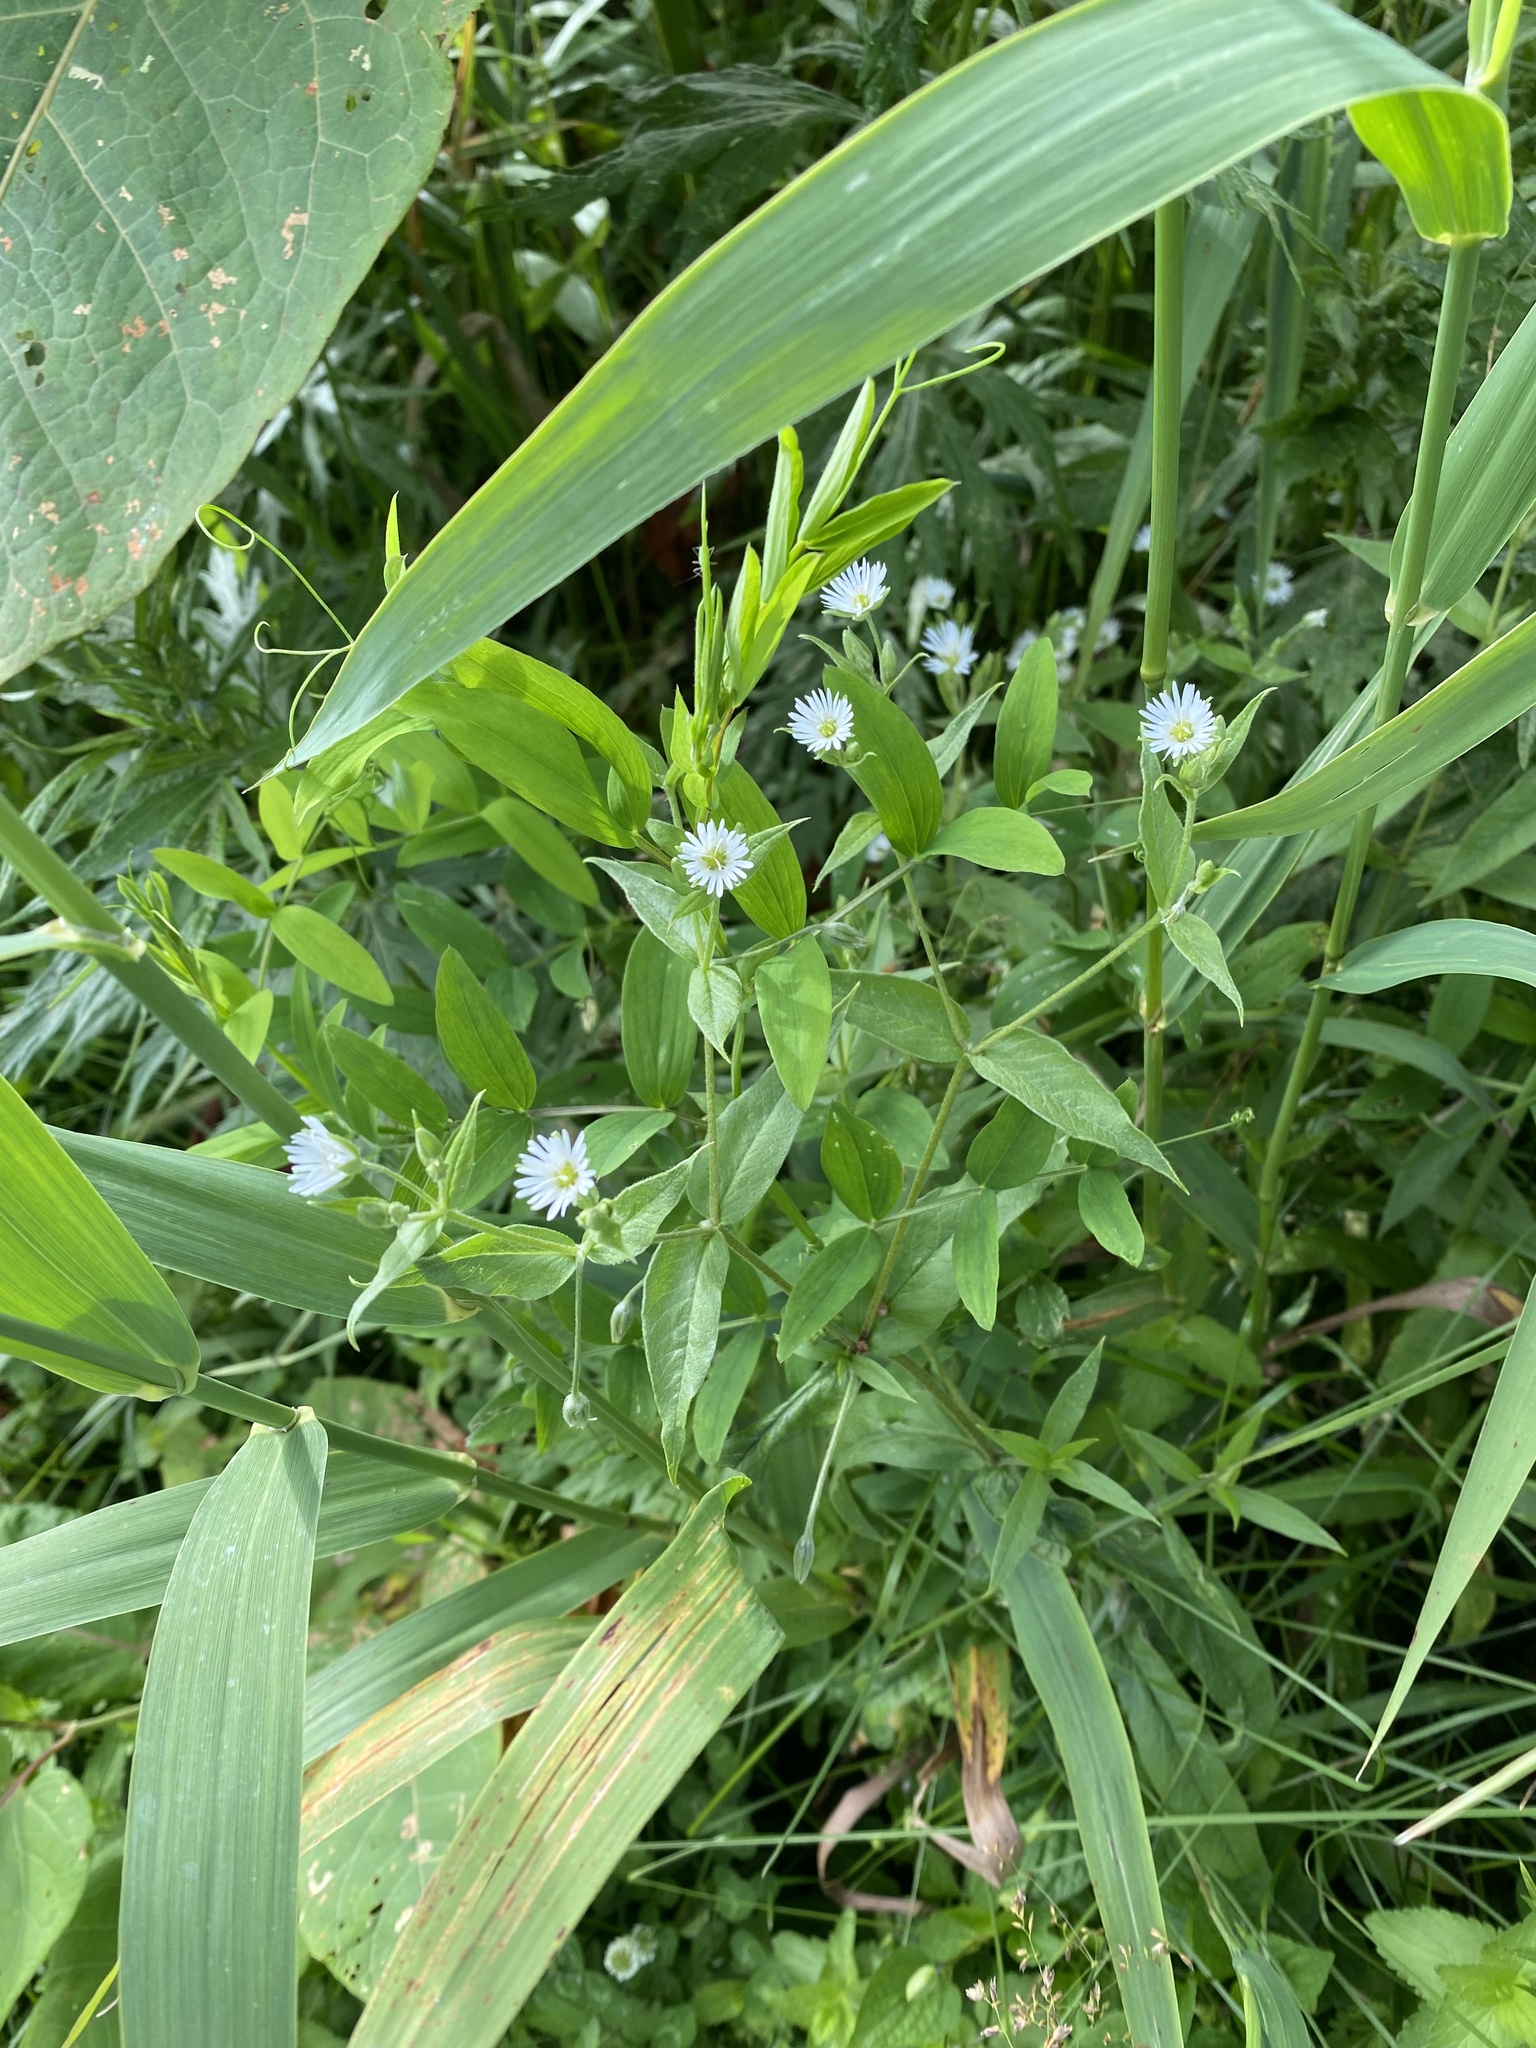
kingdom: Plantae
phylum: Tracheophyta
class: Magnoliopsida
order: Caryophyllales
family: Caryophyllaceae
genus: Stellaria
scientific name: Stellaria radians
